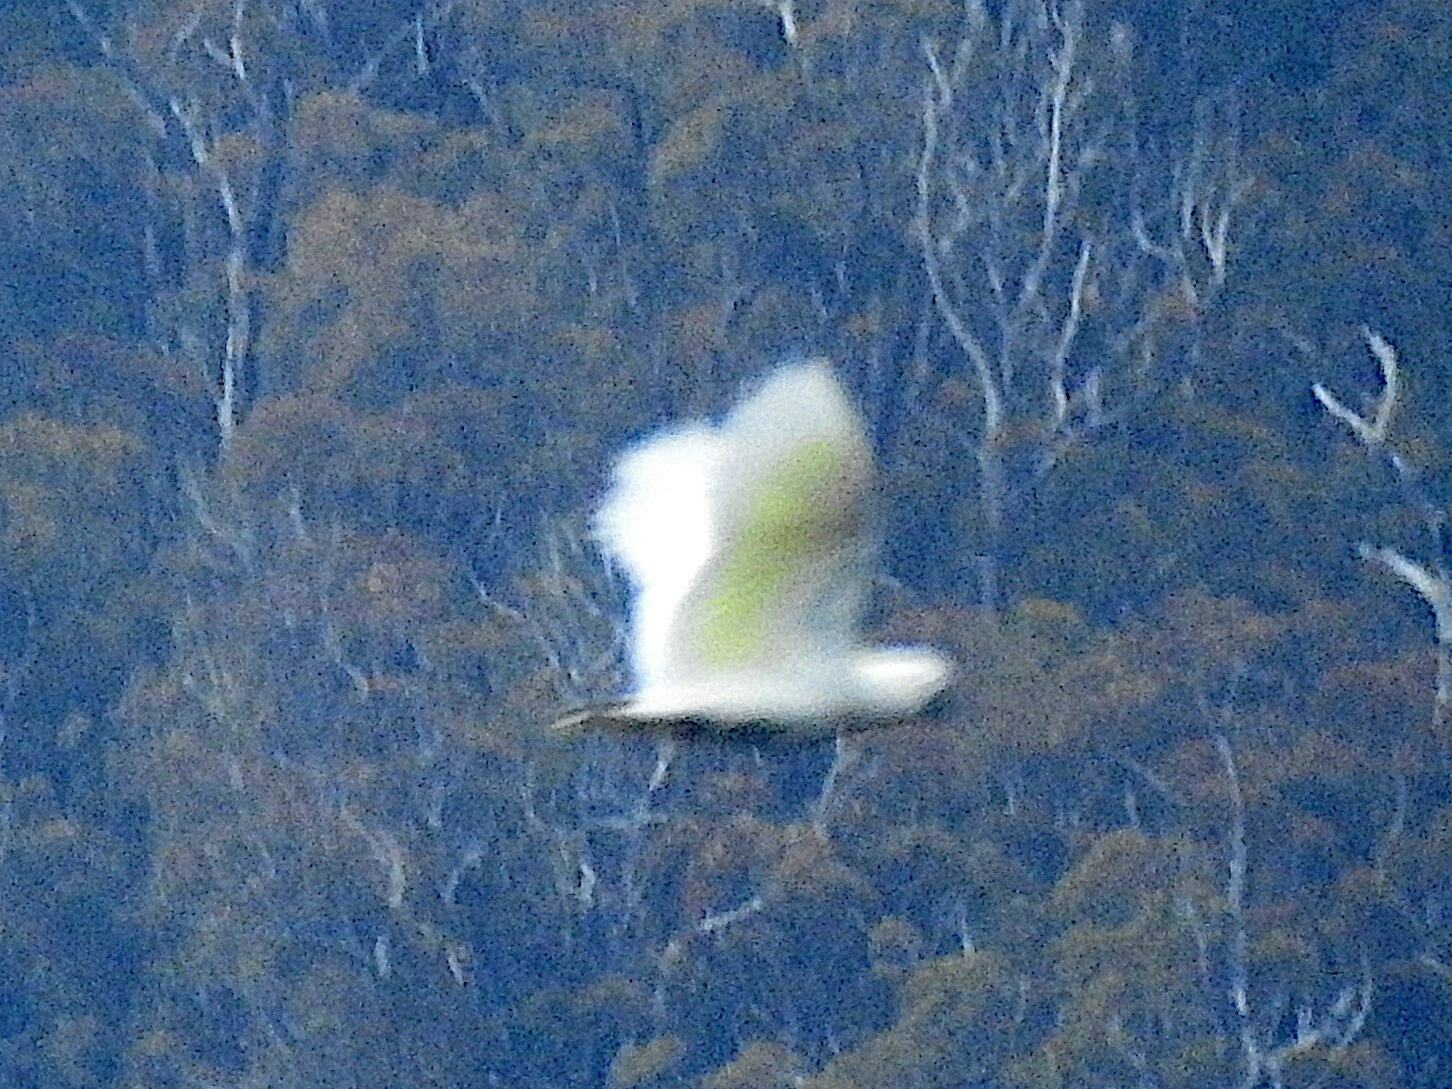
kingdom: Animalia
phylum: Chordata
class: Aves
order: Psittaciformes
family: Psittacidae
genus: Cacatua
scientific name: Cacatua galerita
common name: Sulphur-crested cockatoo
